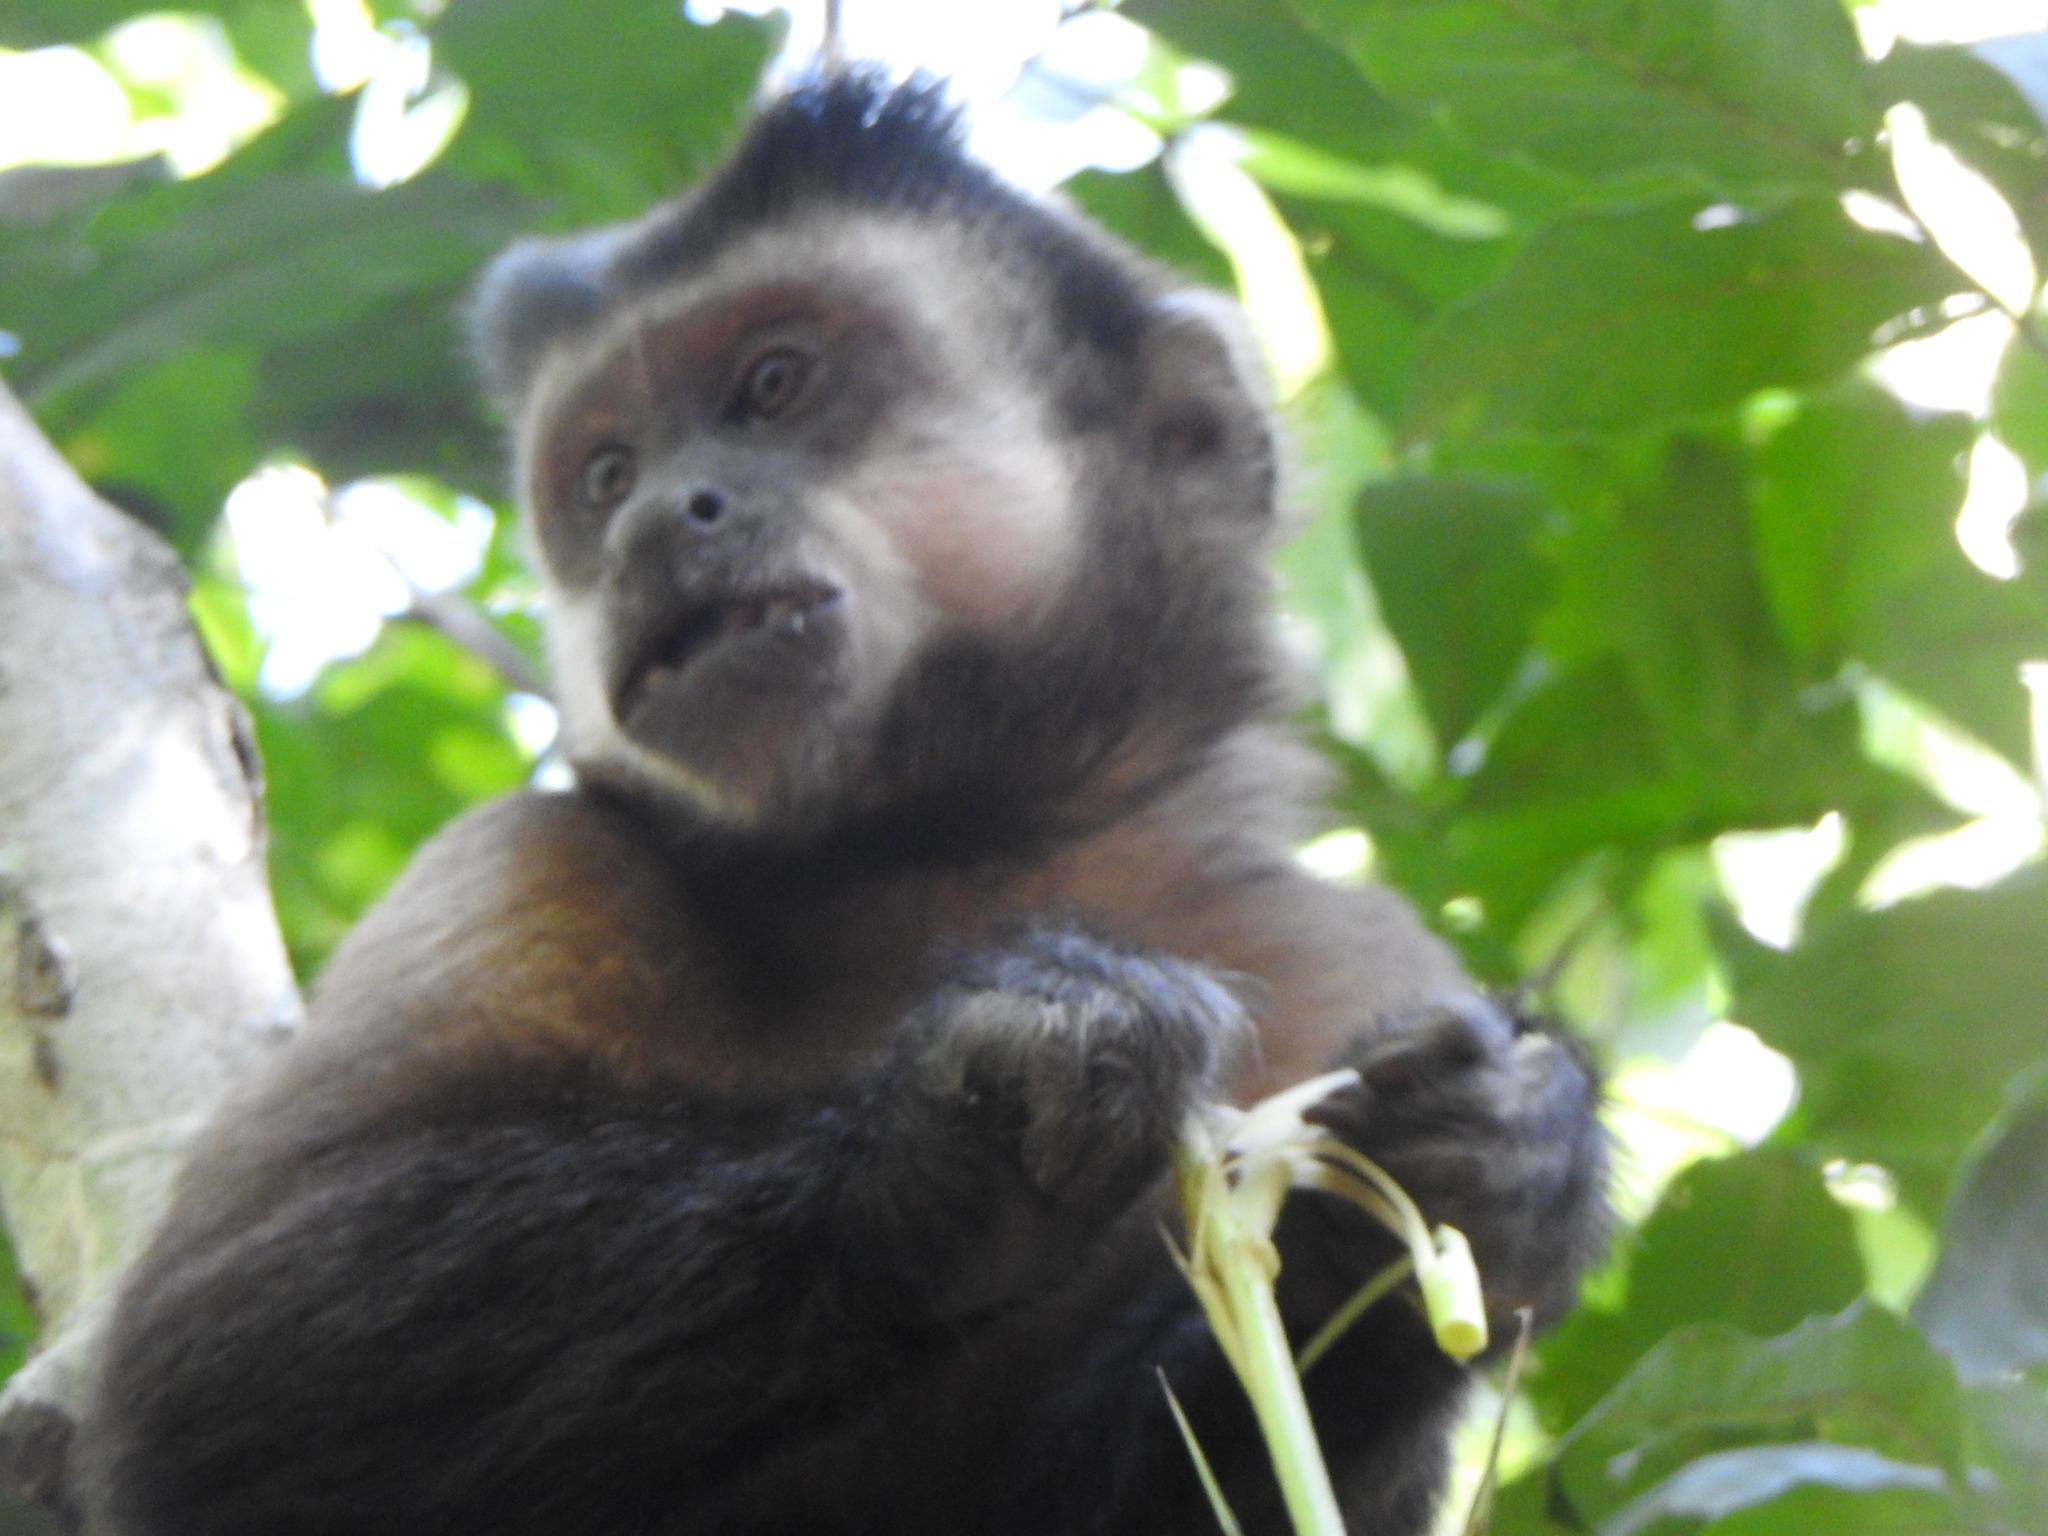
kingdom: Animalia
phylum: Chordata
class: Mammalia
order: Primates
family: Cebidae
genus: Sapajus
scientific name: Sapajus nigritus
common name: Black capuchin
